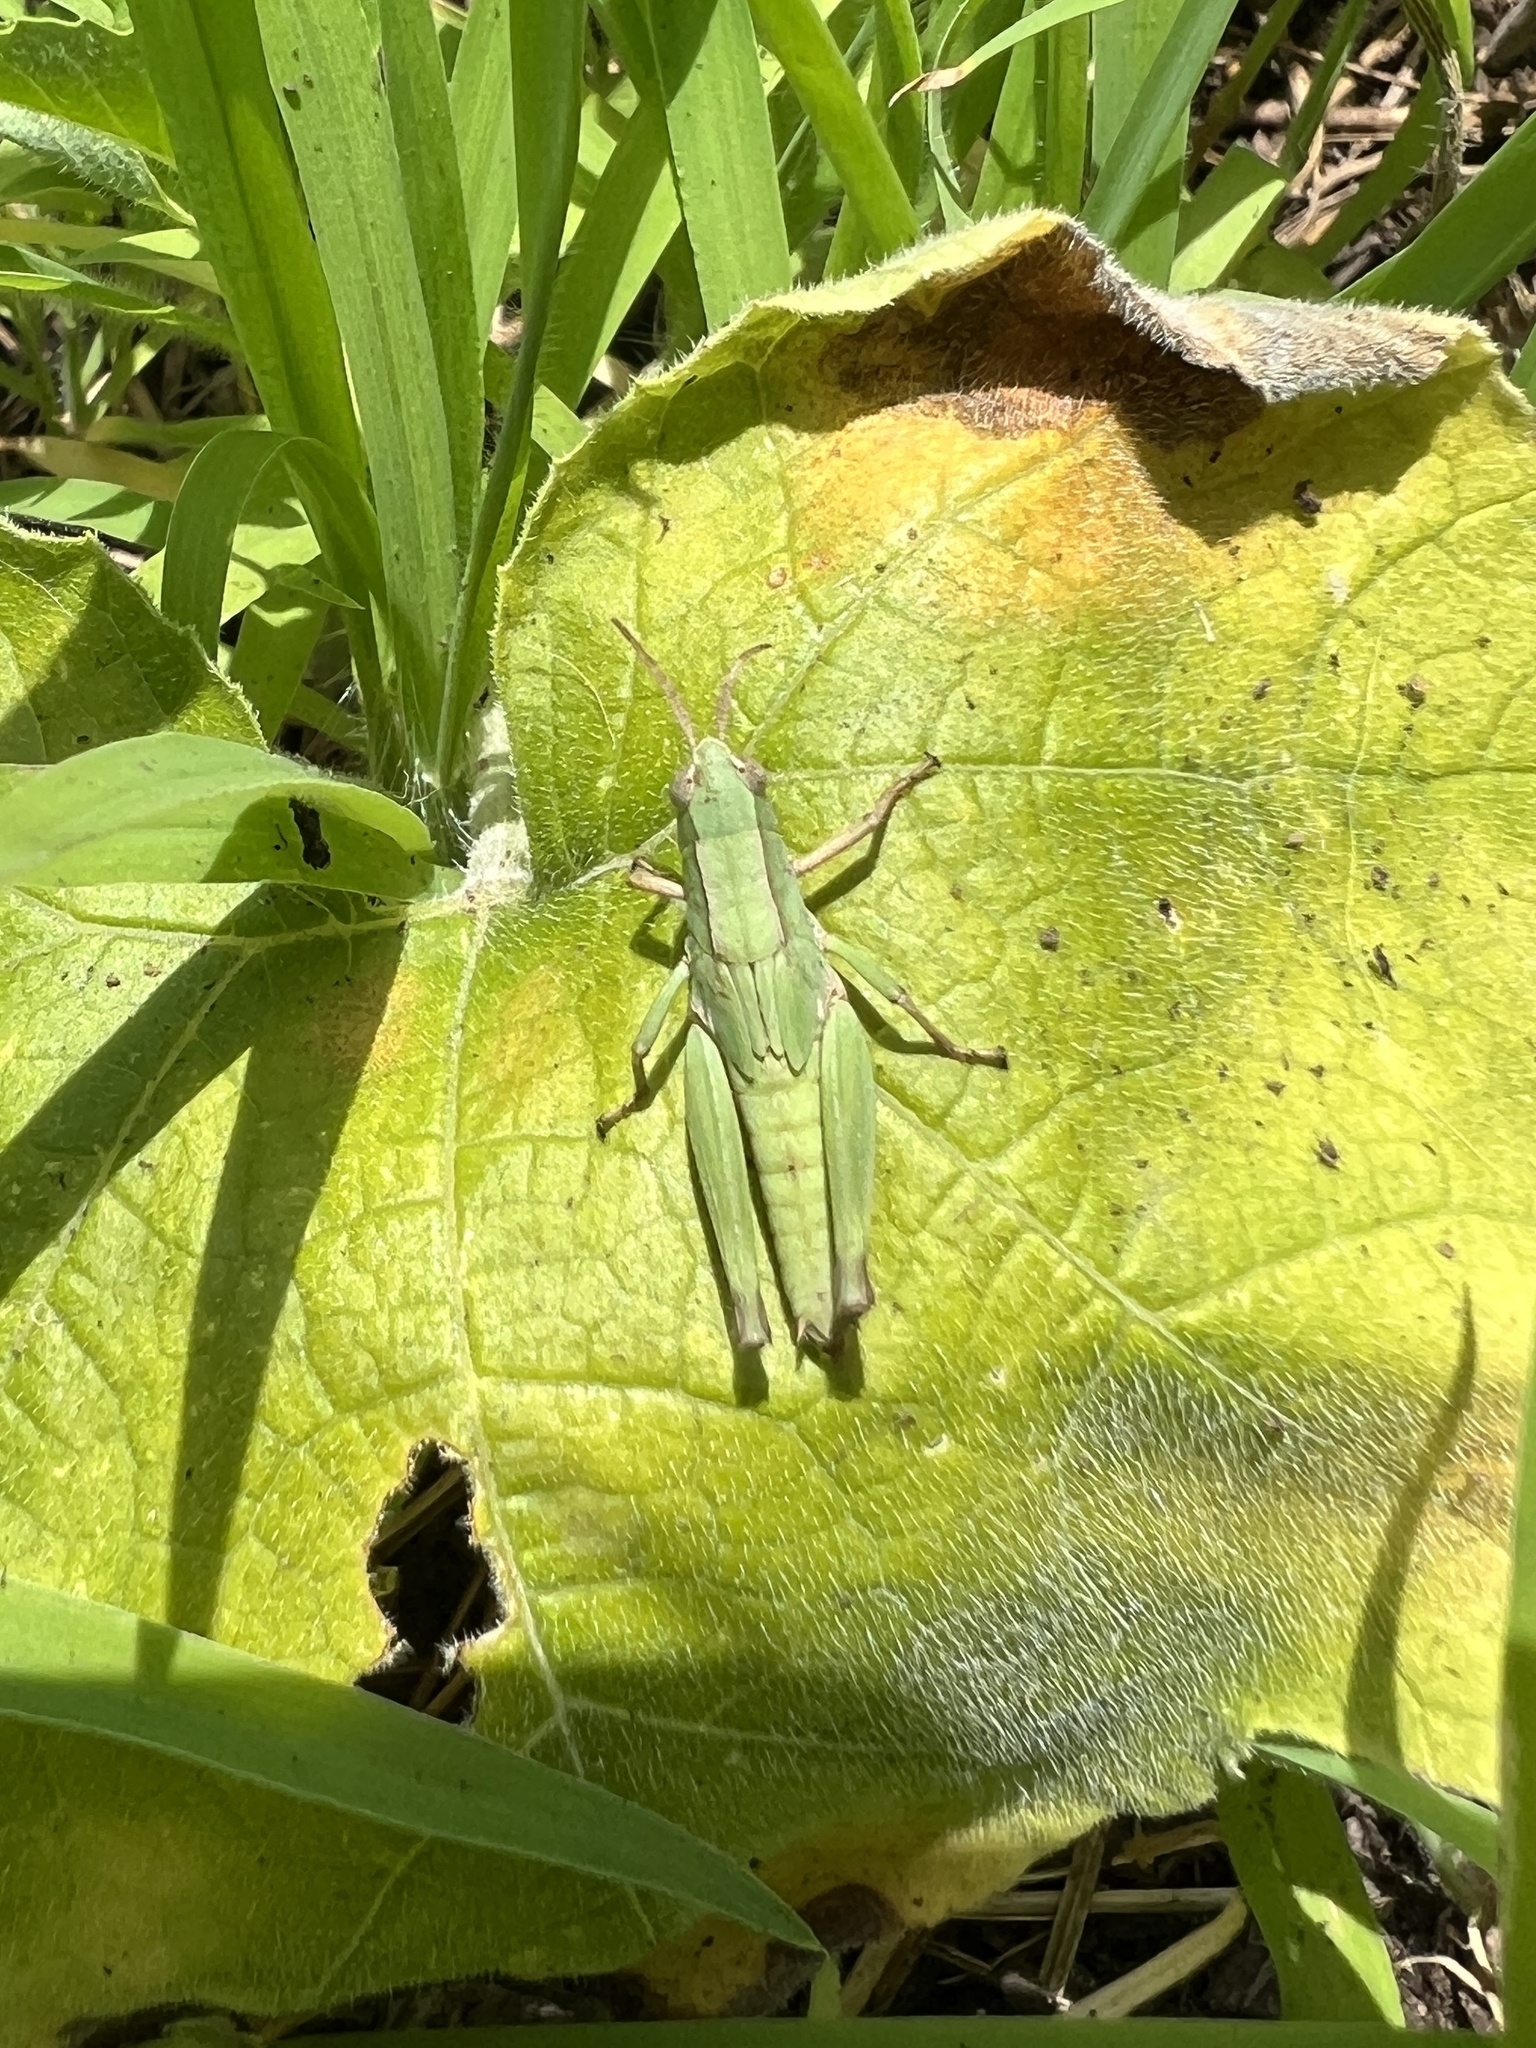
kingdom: Animalia
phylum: Arthropoda
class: Insecta
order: Orthoptera
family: Acrididae
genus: Dichromorpha
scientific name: Dichromorpha viridis
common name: Short-winged green grasshopper
